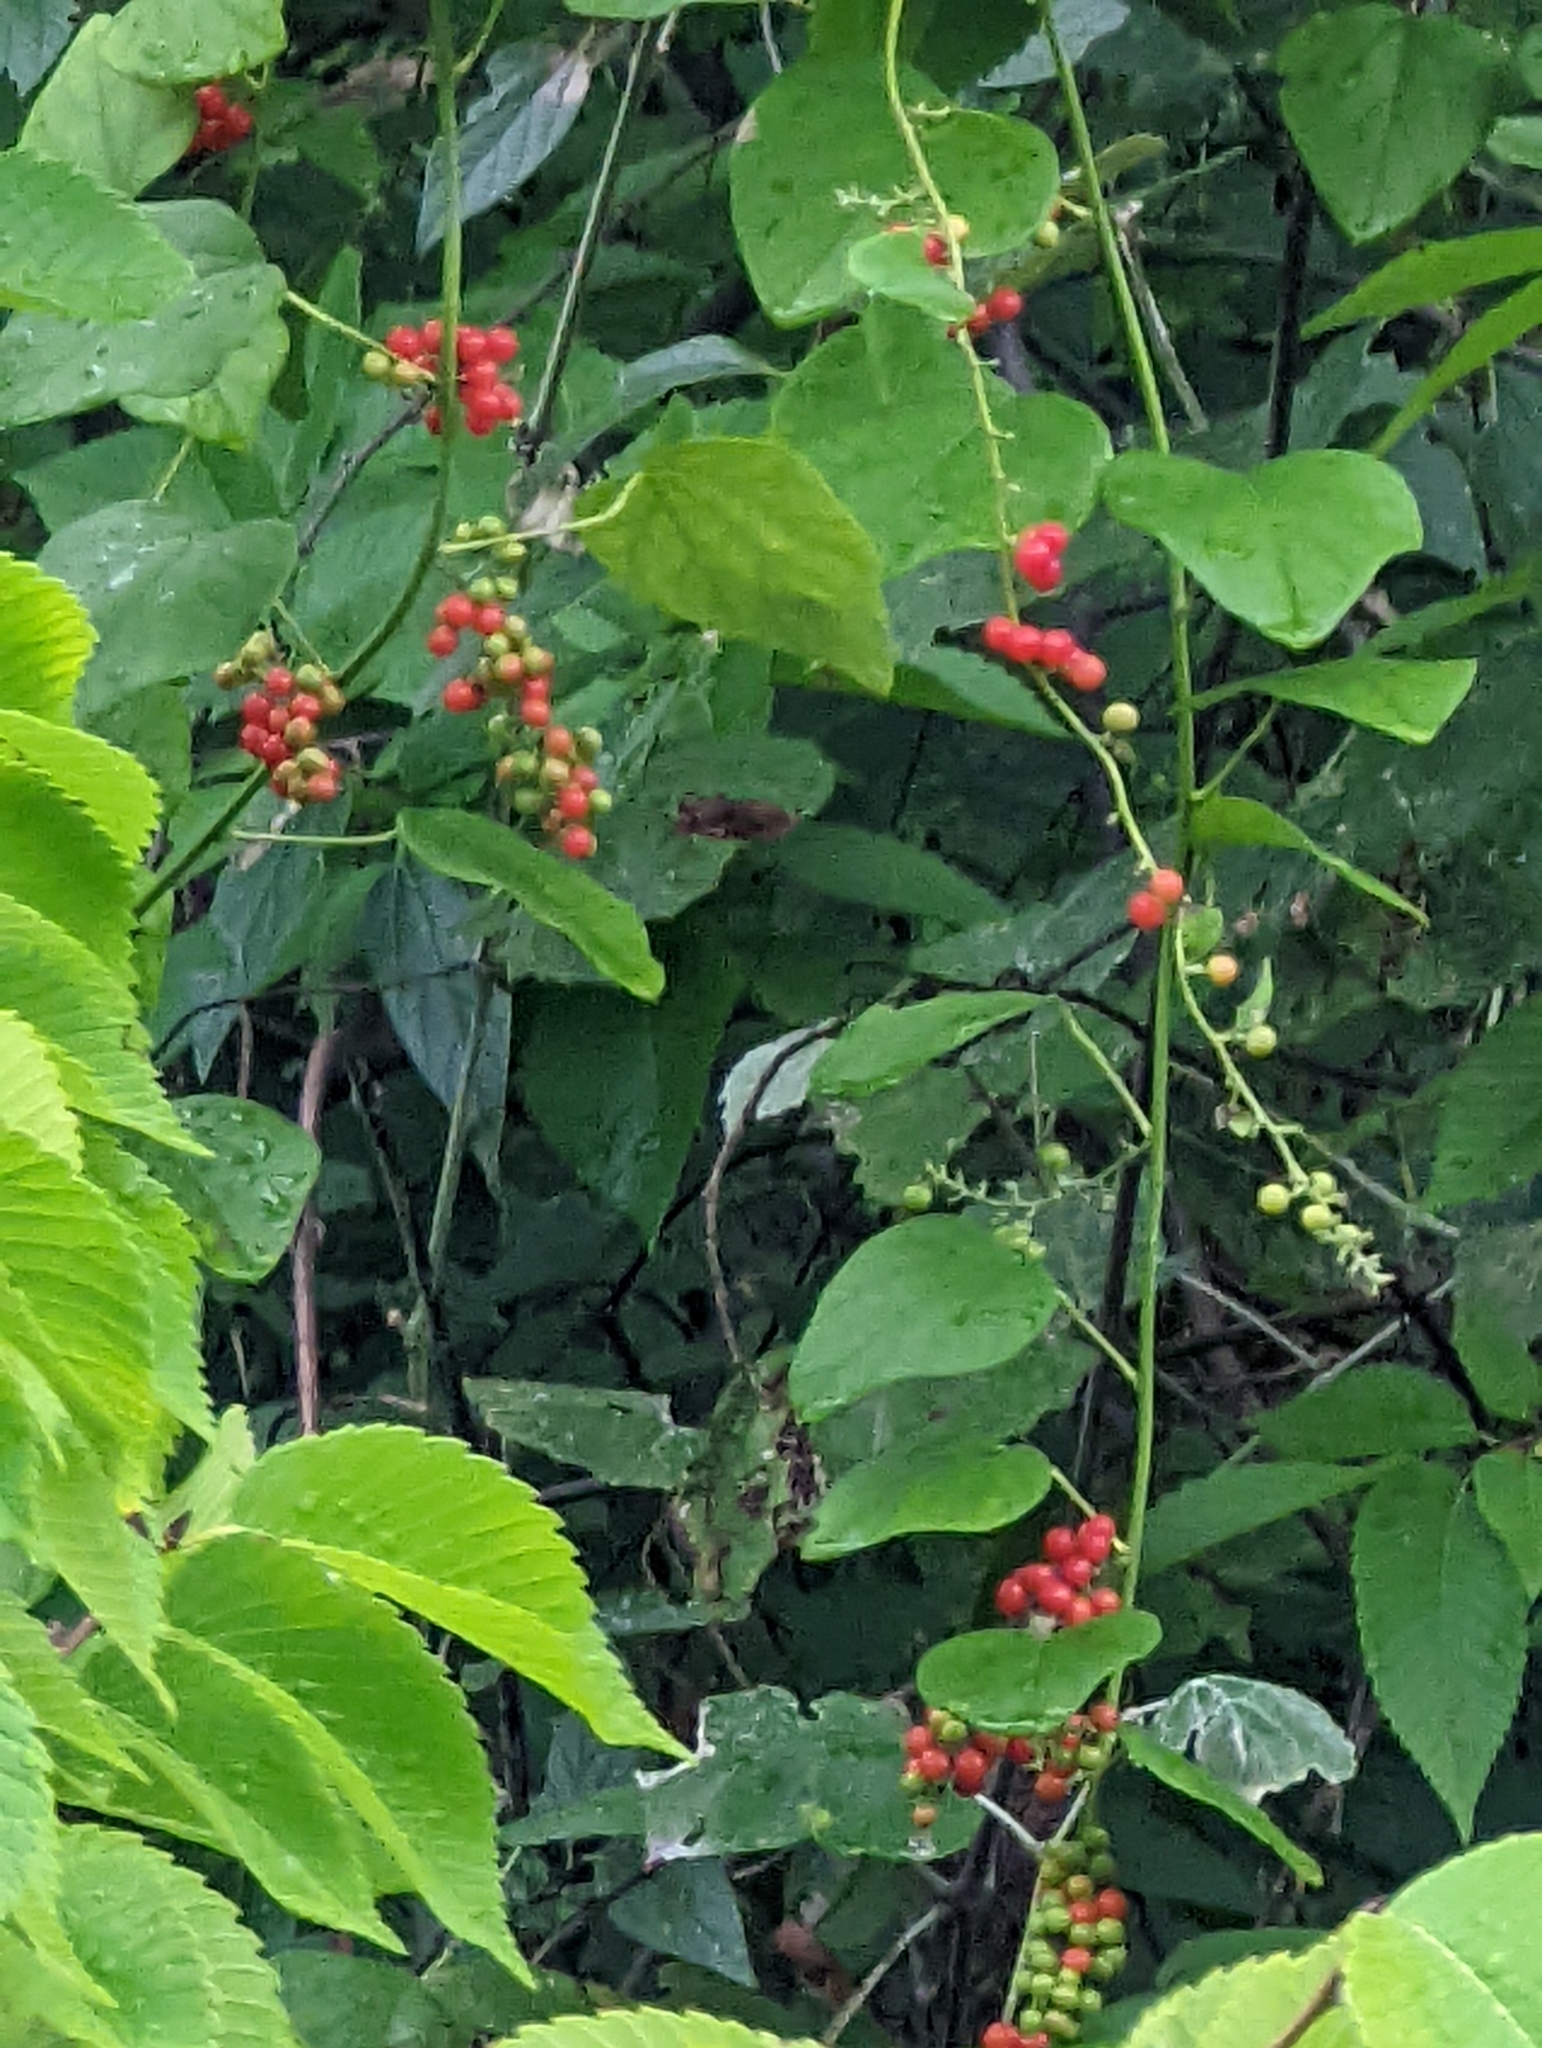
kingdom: Plantae
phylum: Tracheophyta
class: Magnoliopsida
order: Ranunculales
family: Menispermaceae
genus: Cocculus
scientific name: Cocculus carolinus
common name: Carolina moonseed
